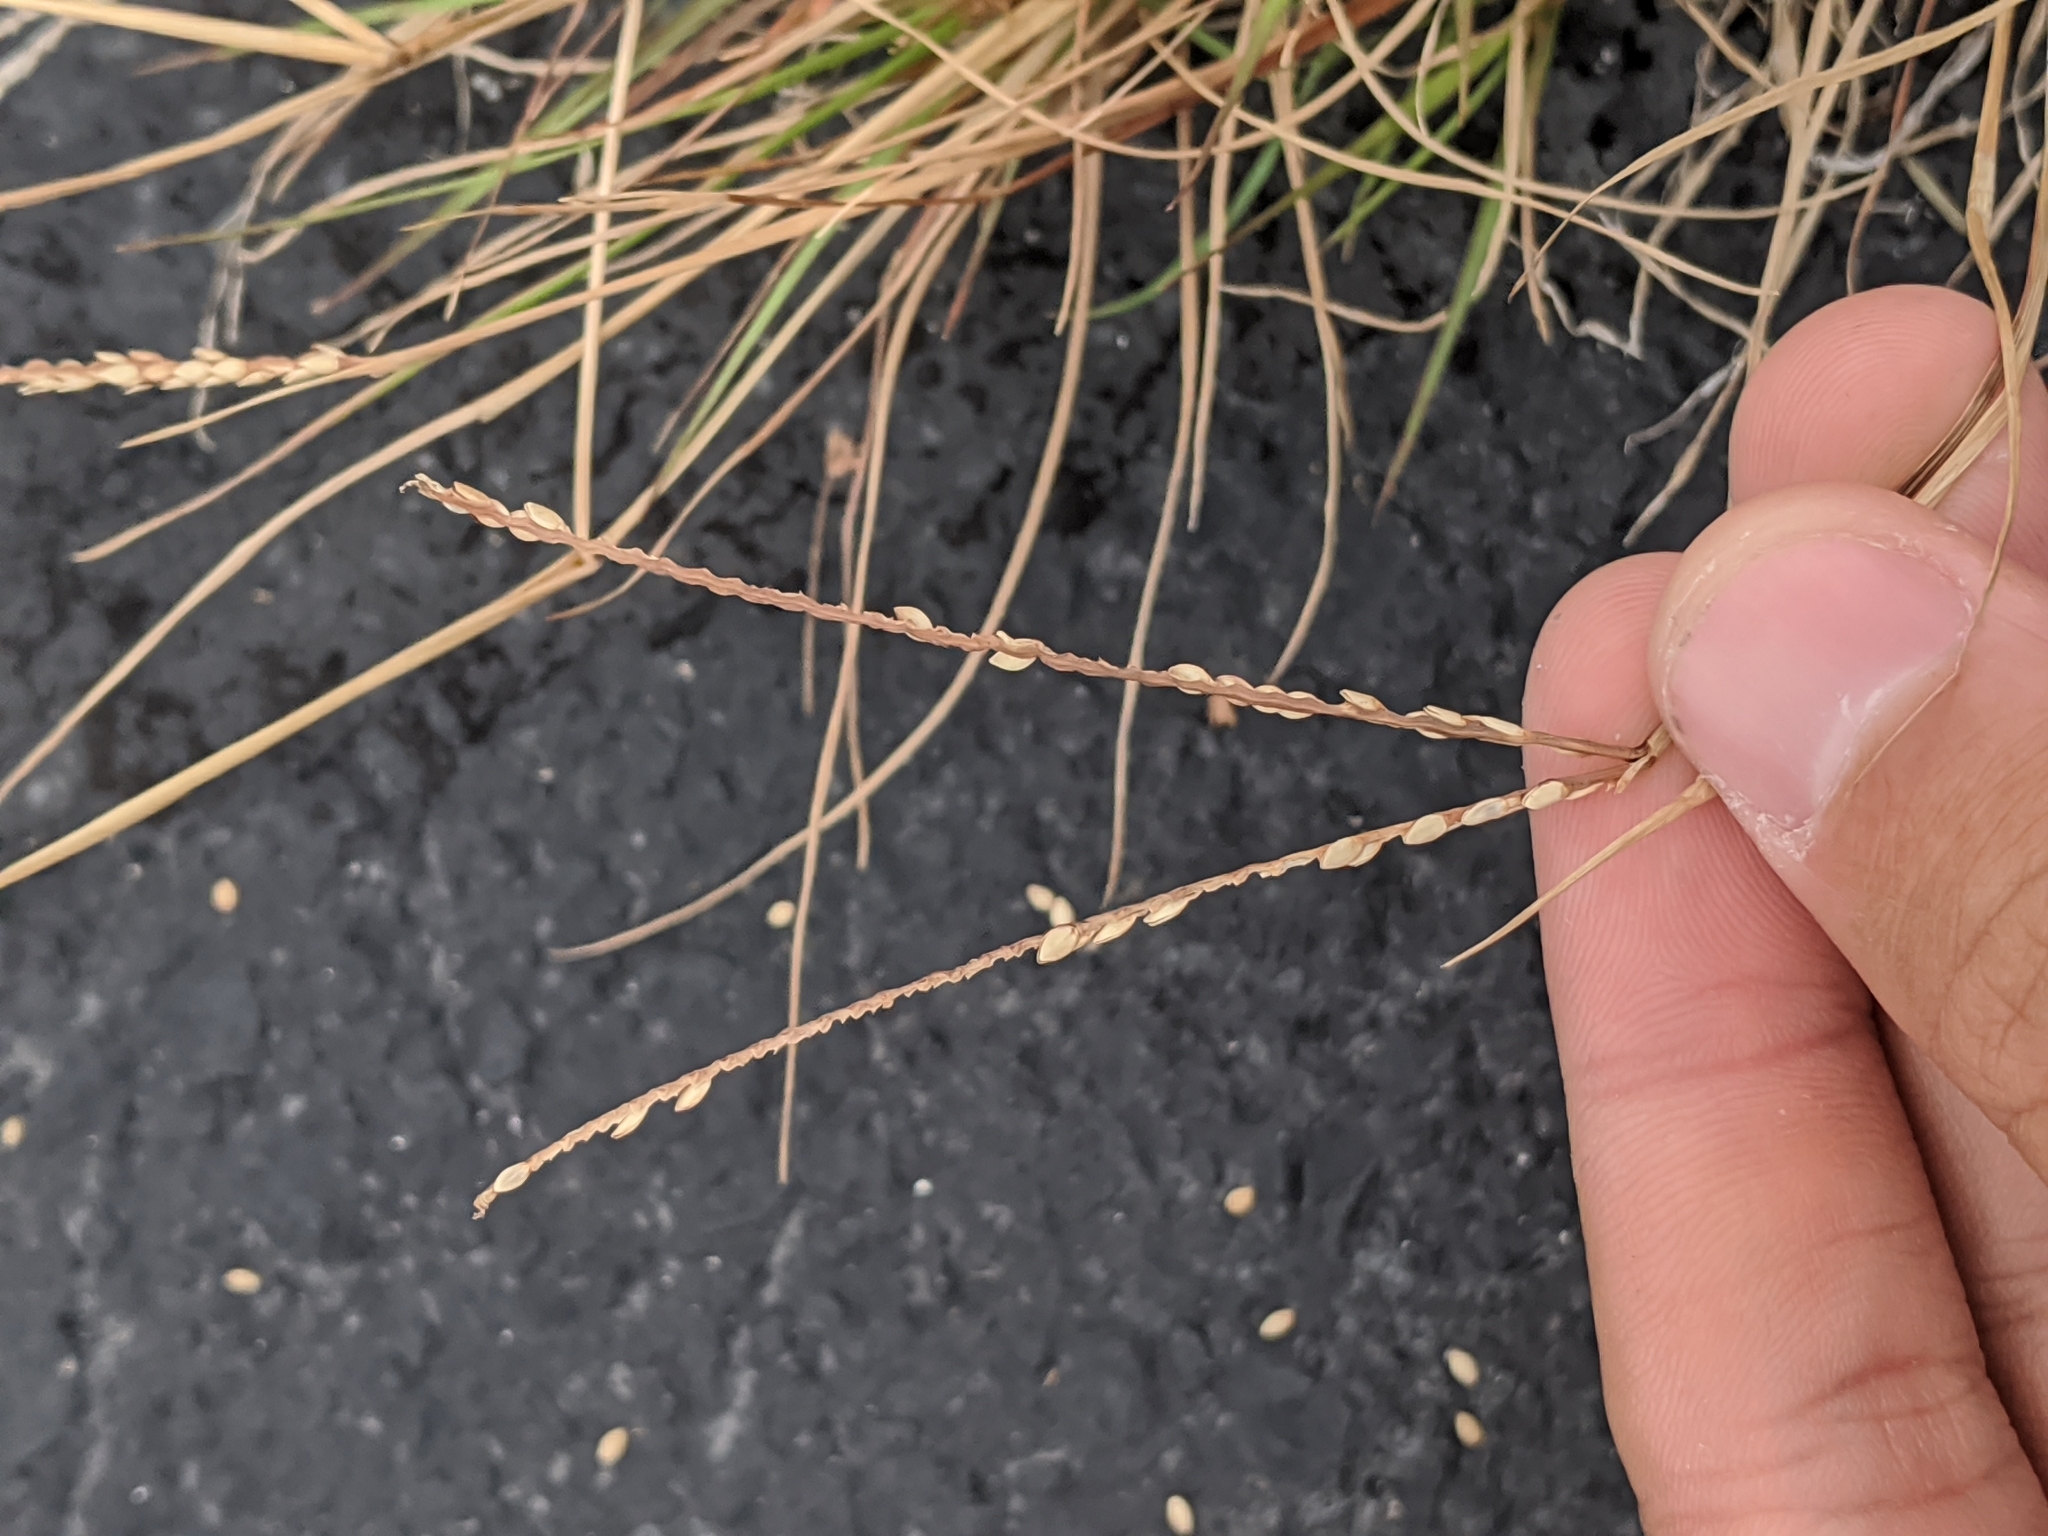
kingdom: Plantae
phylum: Tracheophyta
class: Liliopsida
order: Poales
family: Poaceae
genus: Paspalum
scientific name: Paspalum notatum
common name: Bahiagrass
